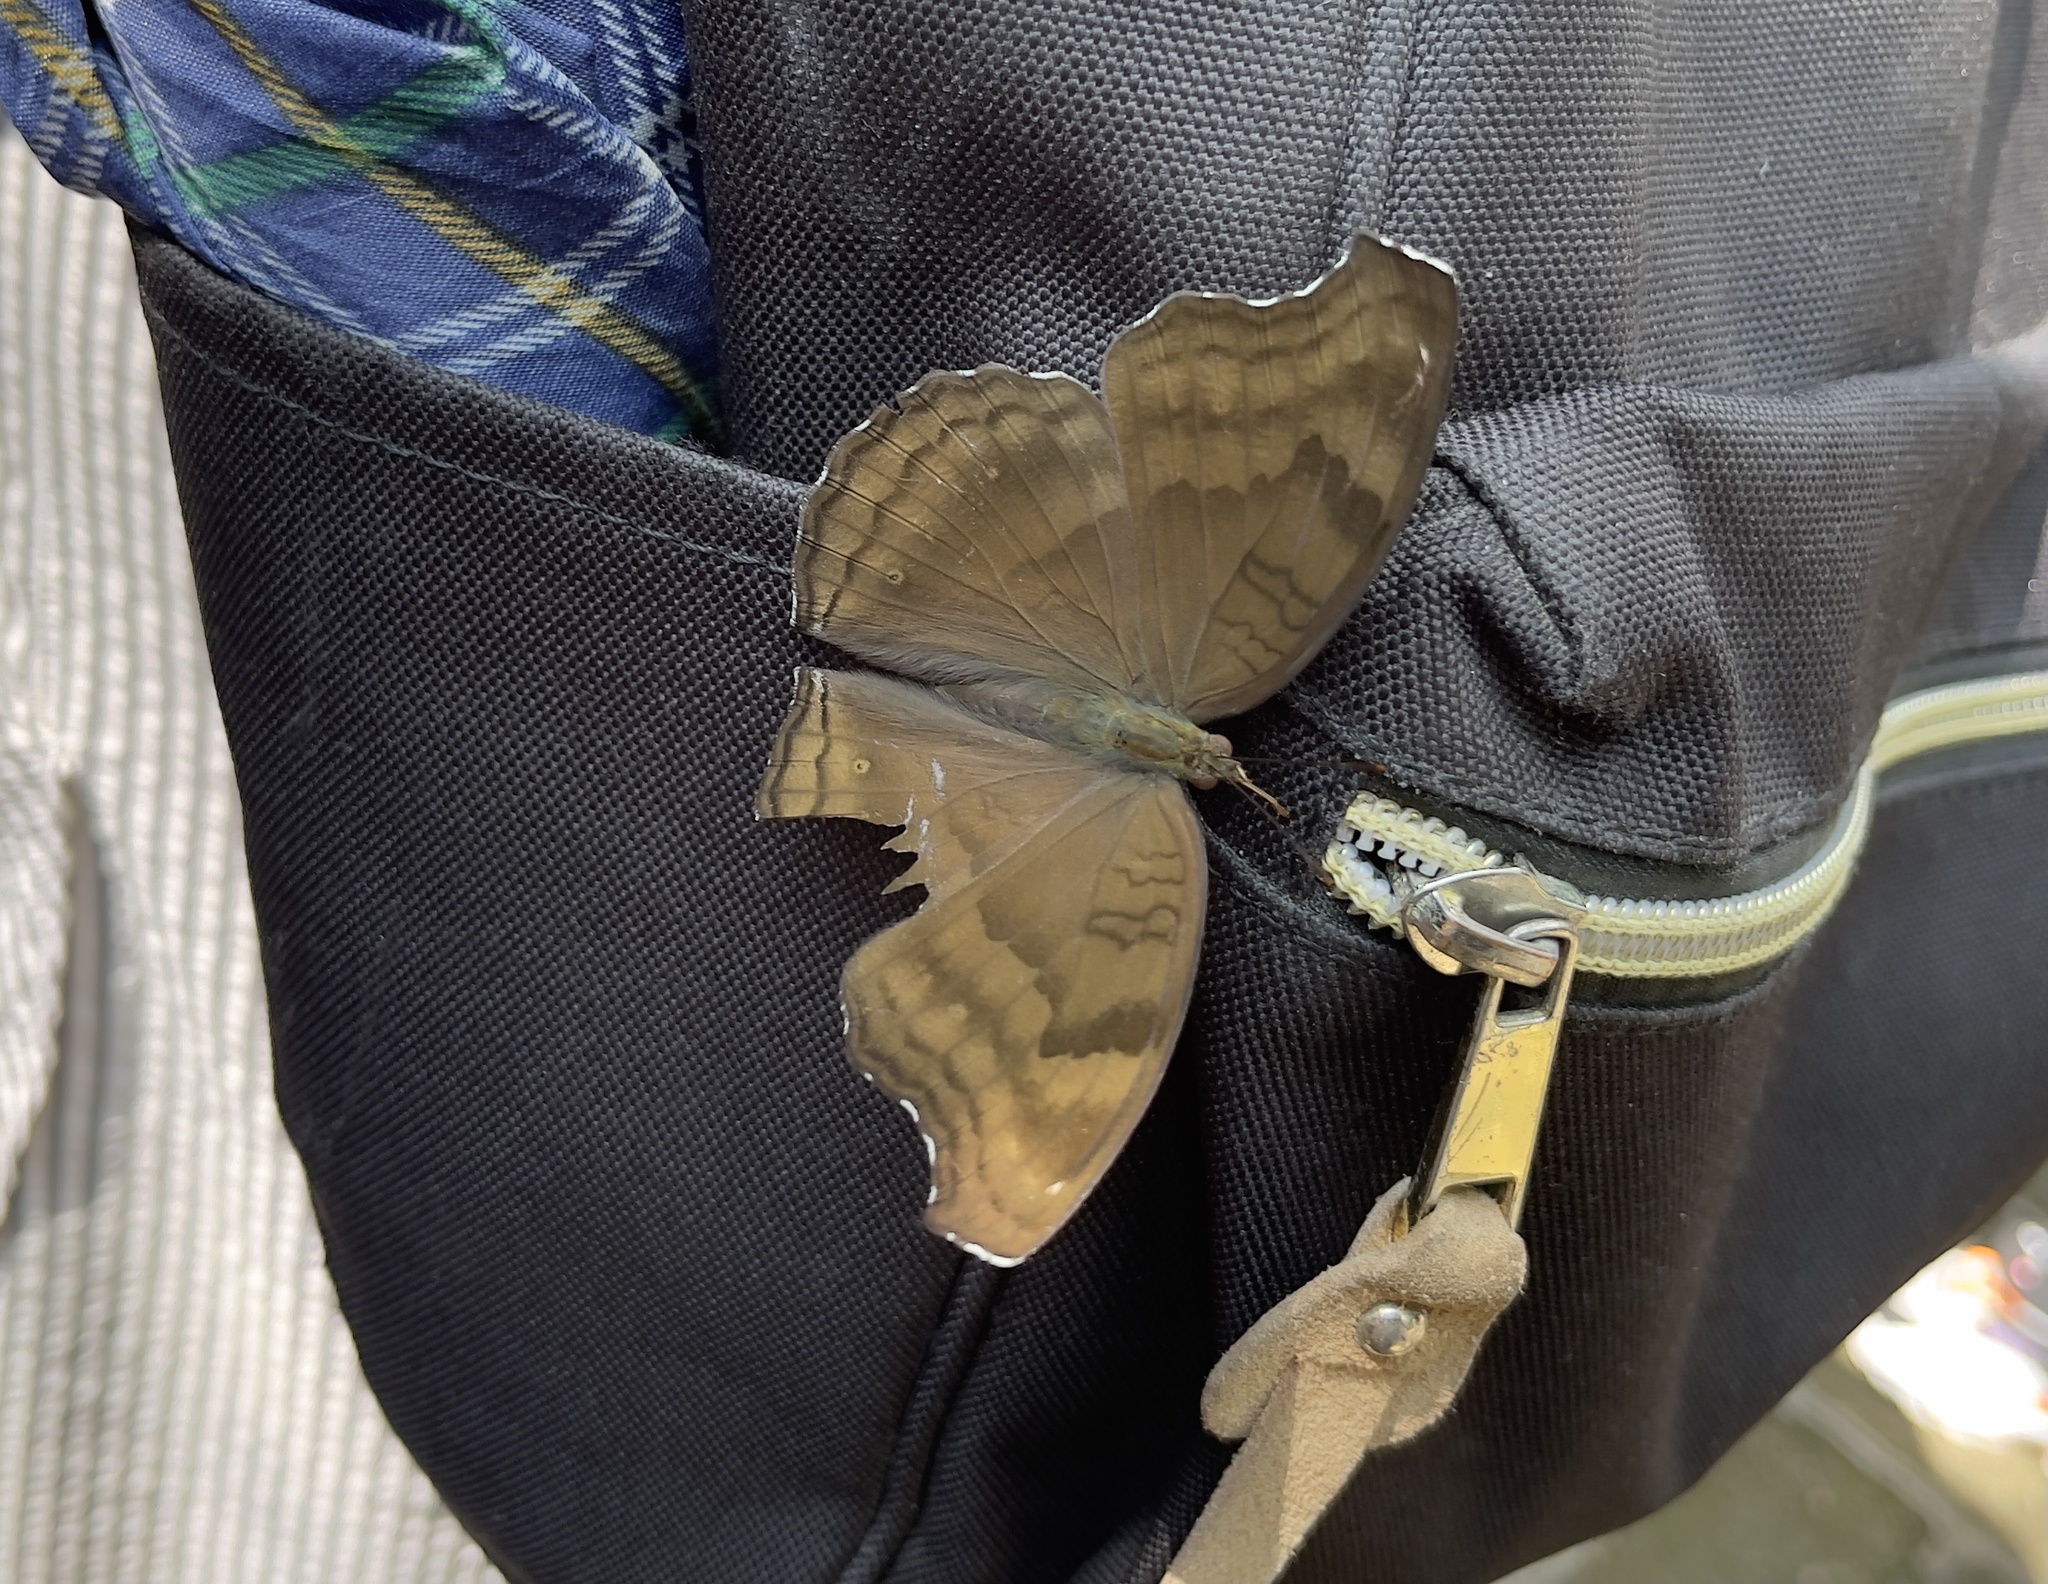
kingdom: Animalia
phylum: Arthropoda
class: Insecta
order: Lepidoptera
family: Nymphalidae
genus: Junonia
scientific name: Junonia iphita
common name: Chocolate pansy
